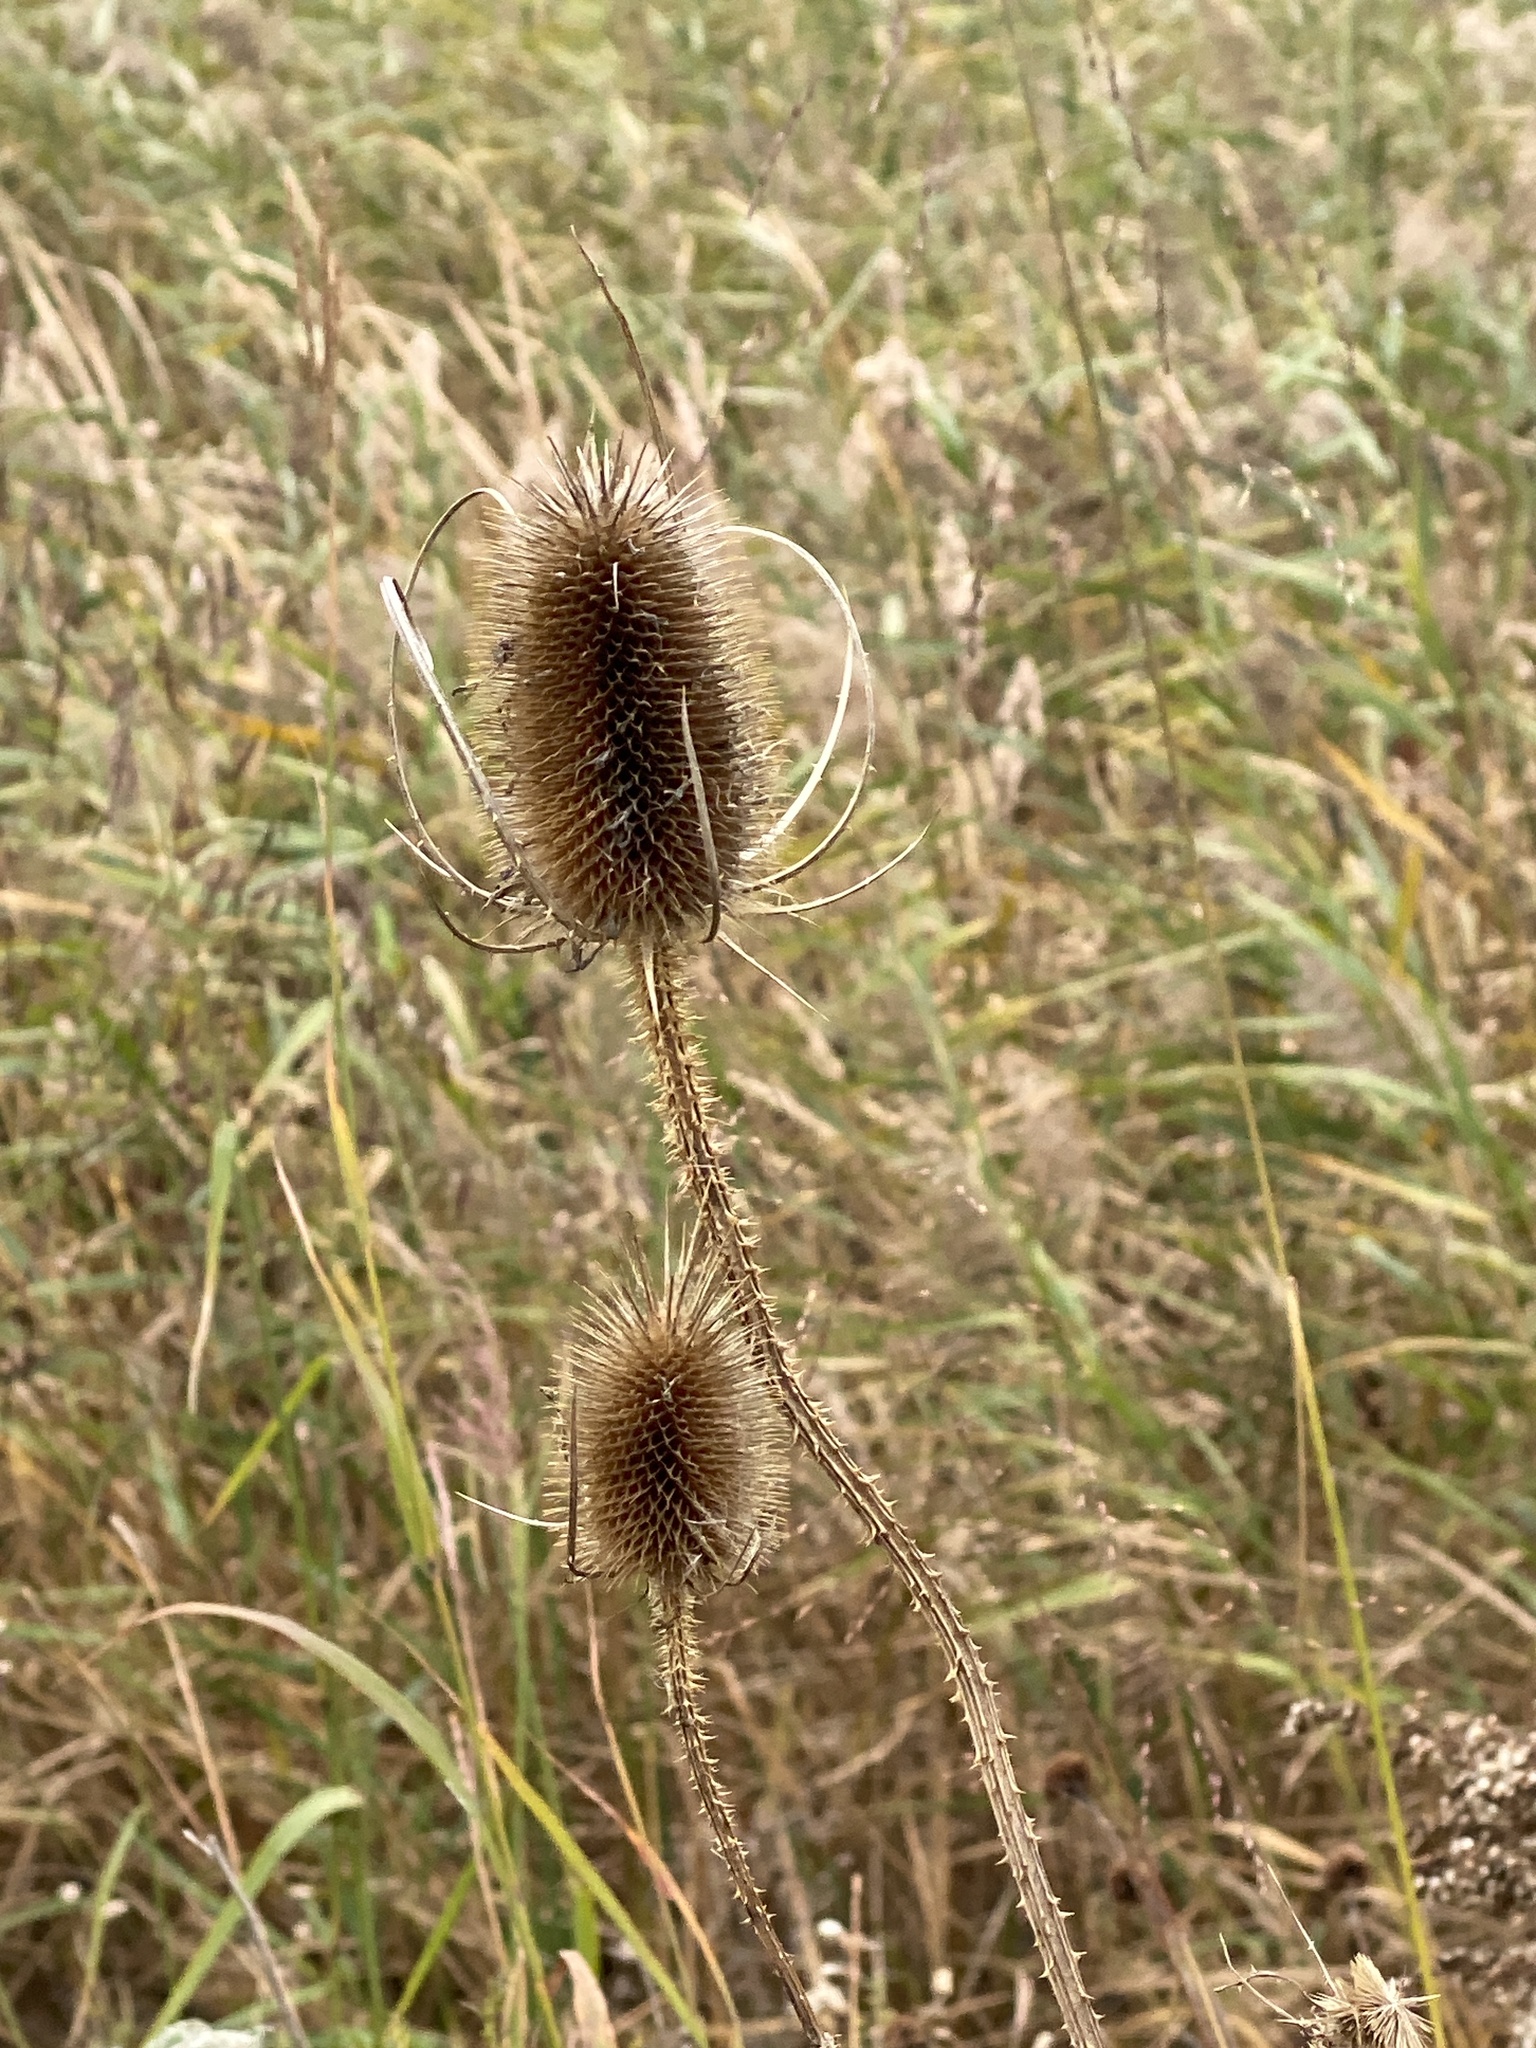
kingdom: Plantae
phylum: Tracheophyta
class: Magnoliopsida
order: Dipsacales
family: Caprifoliaceae
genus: Dipsacus
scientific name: Dipsacus fullonum
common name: Teasel
